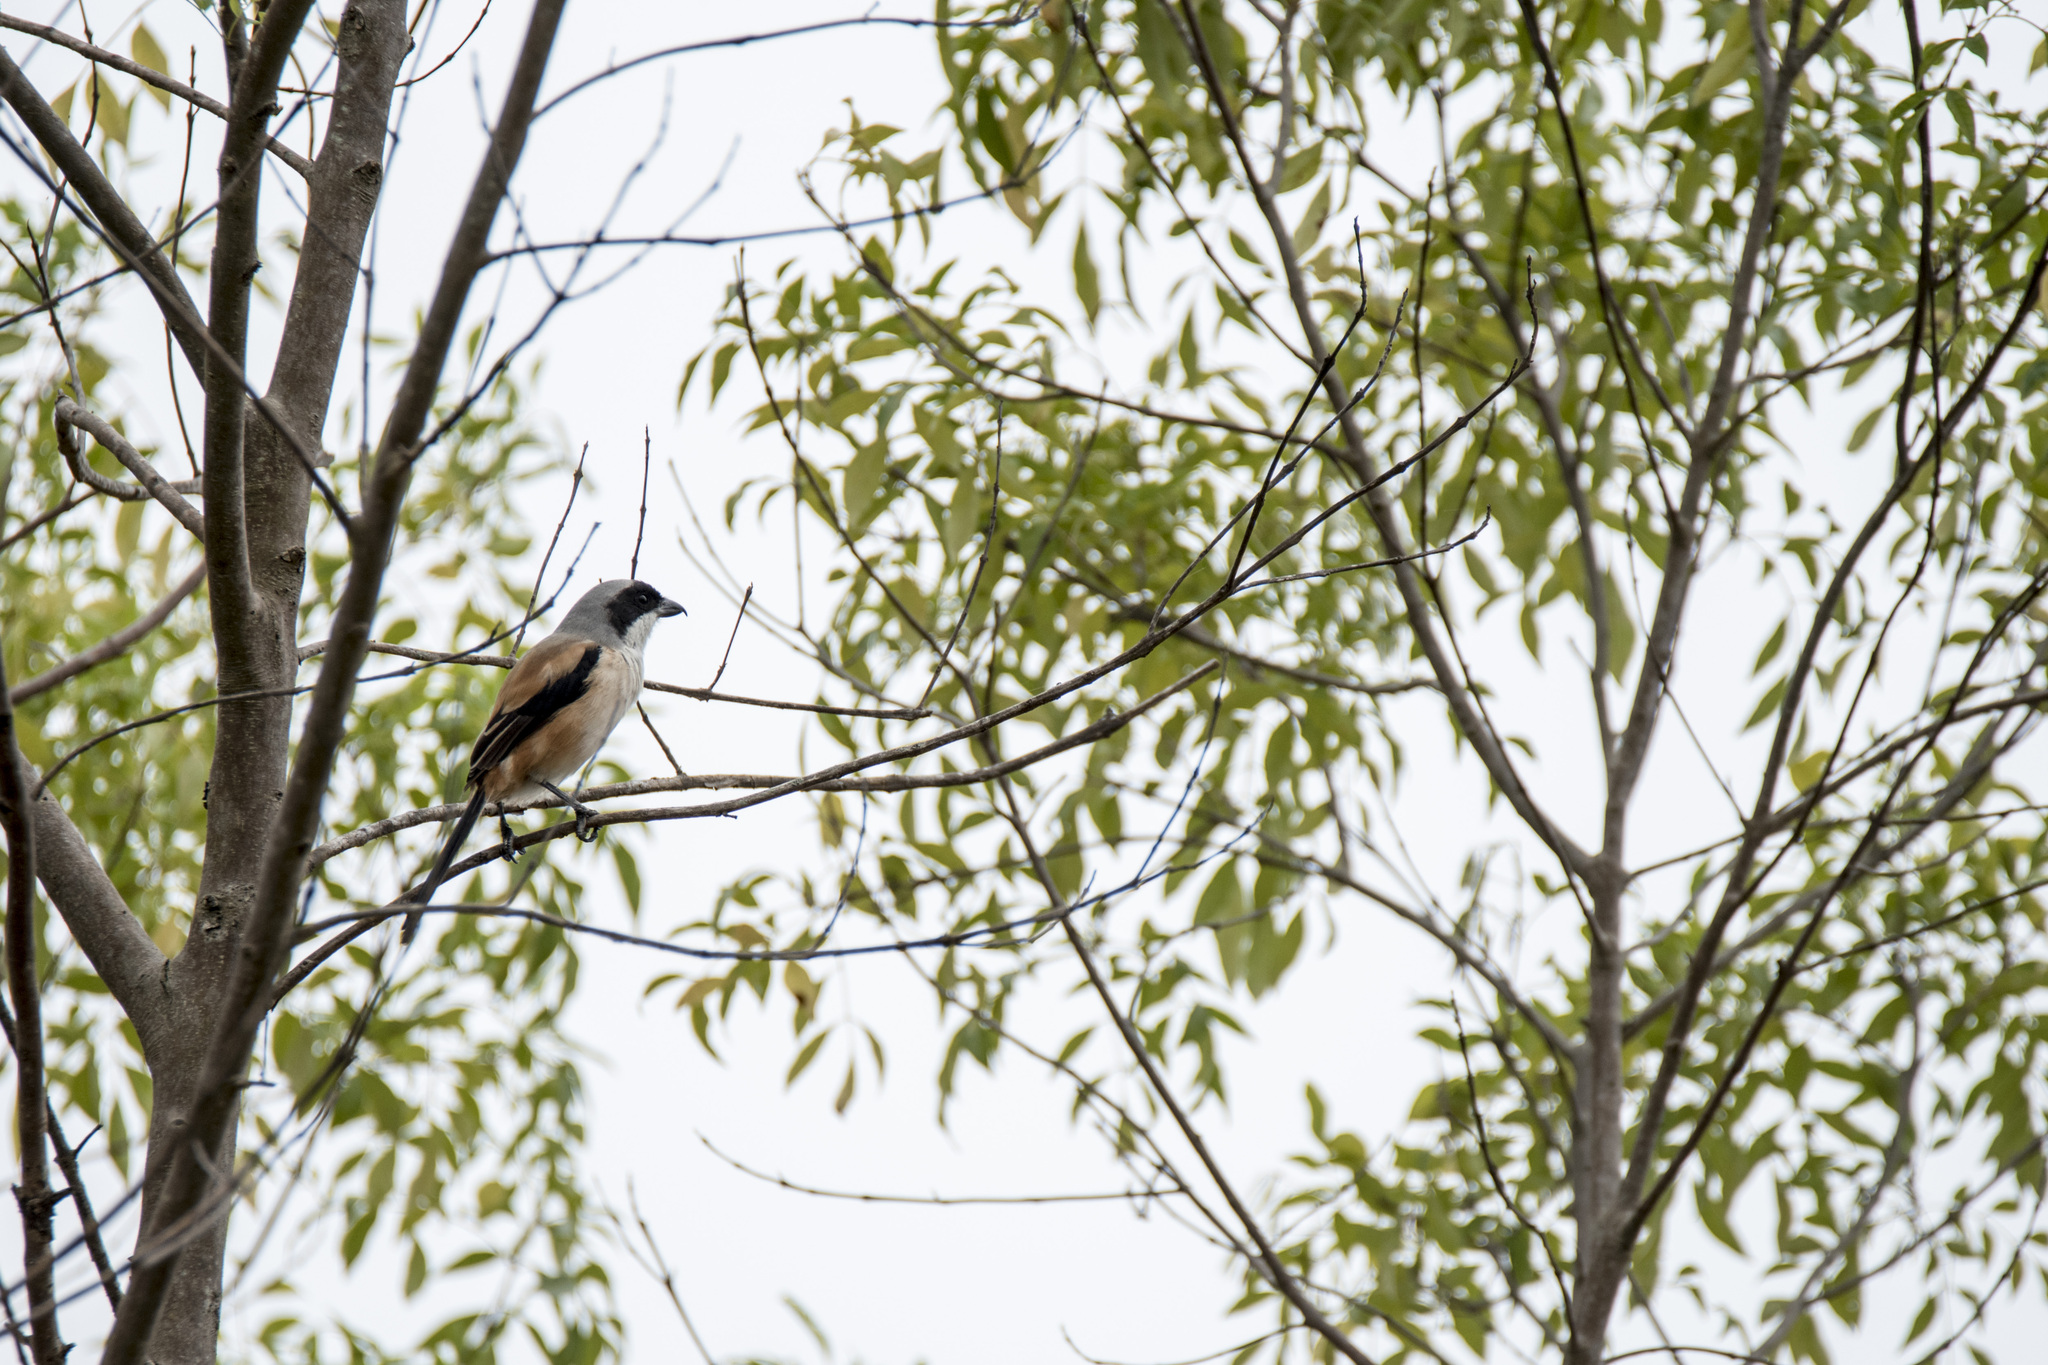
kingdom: Animalia
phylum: Chordata
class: Aves
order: Passeriformes
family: Laniidae
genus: Lanius
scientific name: Lanius schach
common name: Long-tailed shrike
